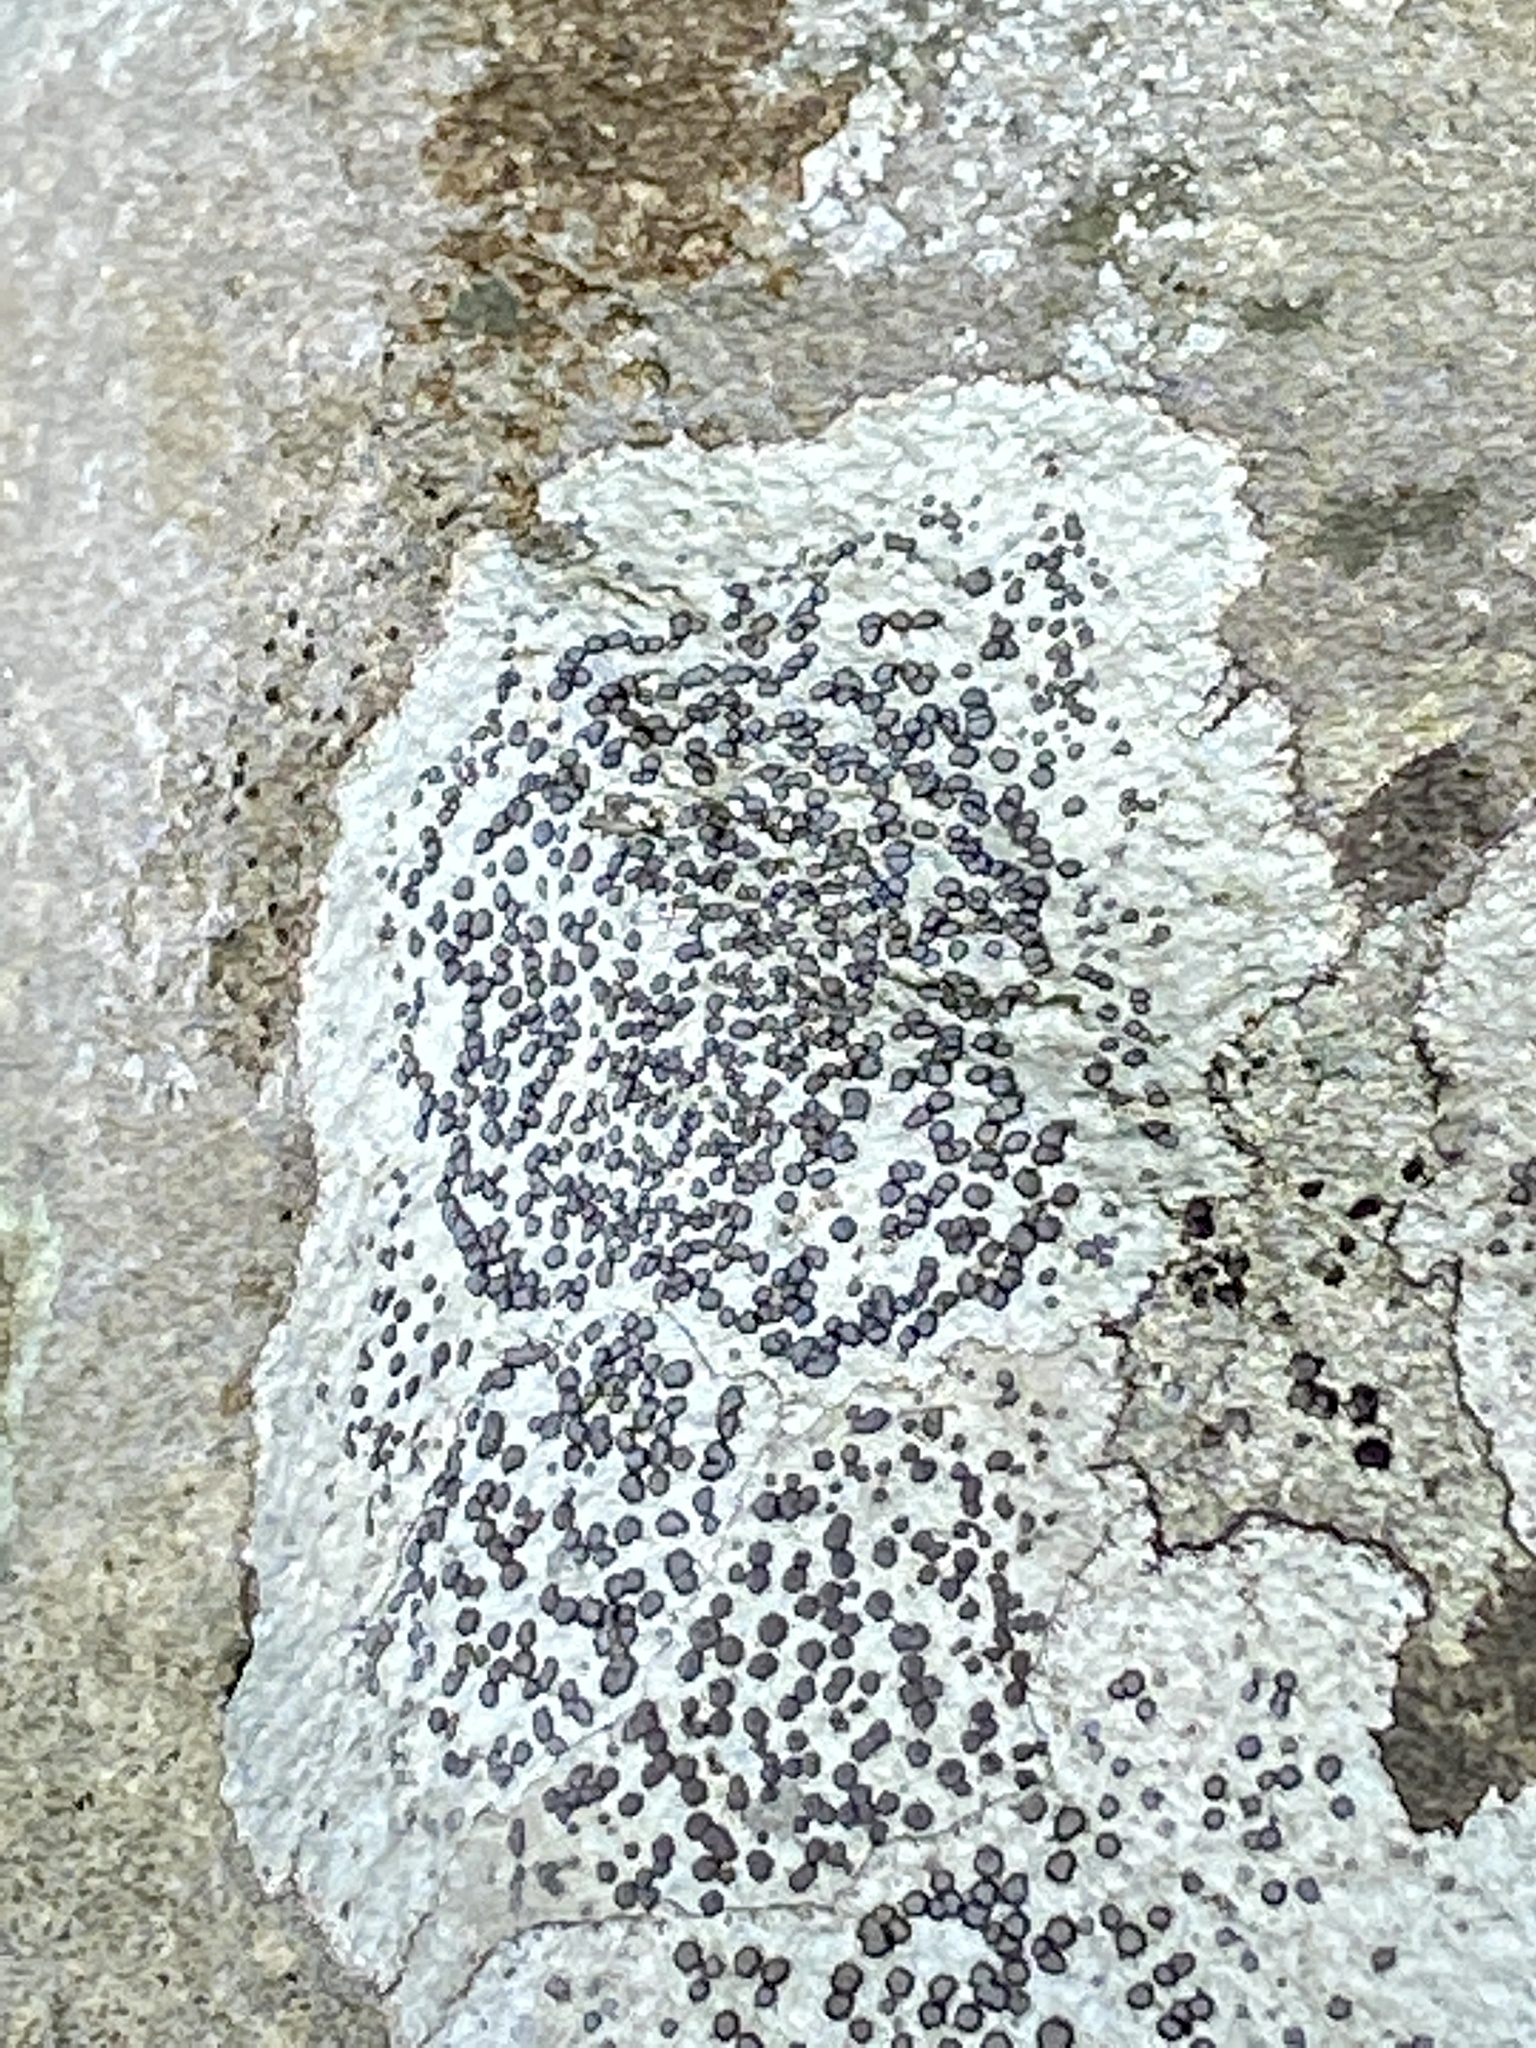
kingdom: Fungi
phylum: Ascomycota
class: Lecanoromycetes
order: Lecideales
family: Lecideaceae
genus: Porpidia
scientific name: Porpidia albocaerulescens
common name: Smokey-eyed boulder lichen
